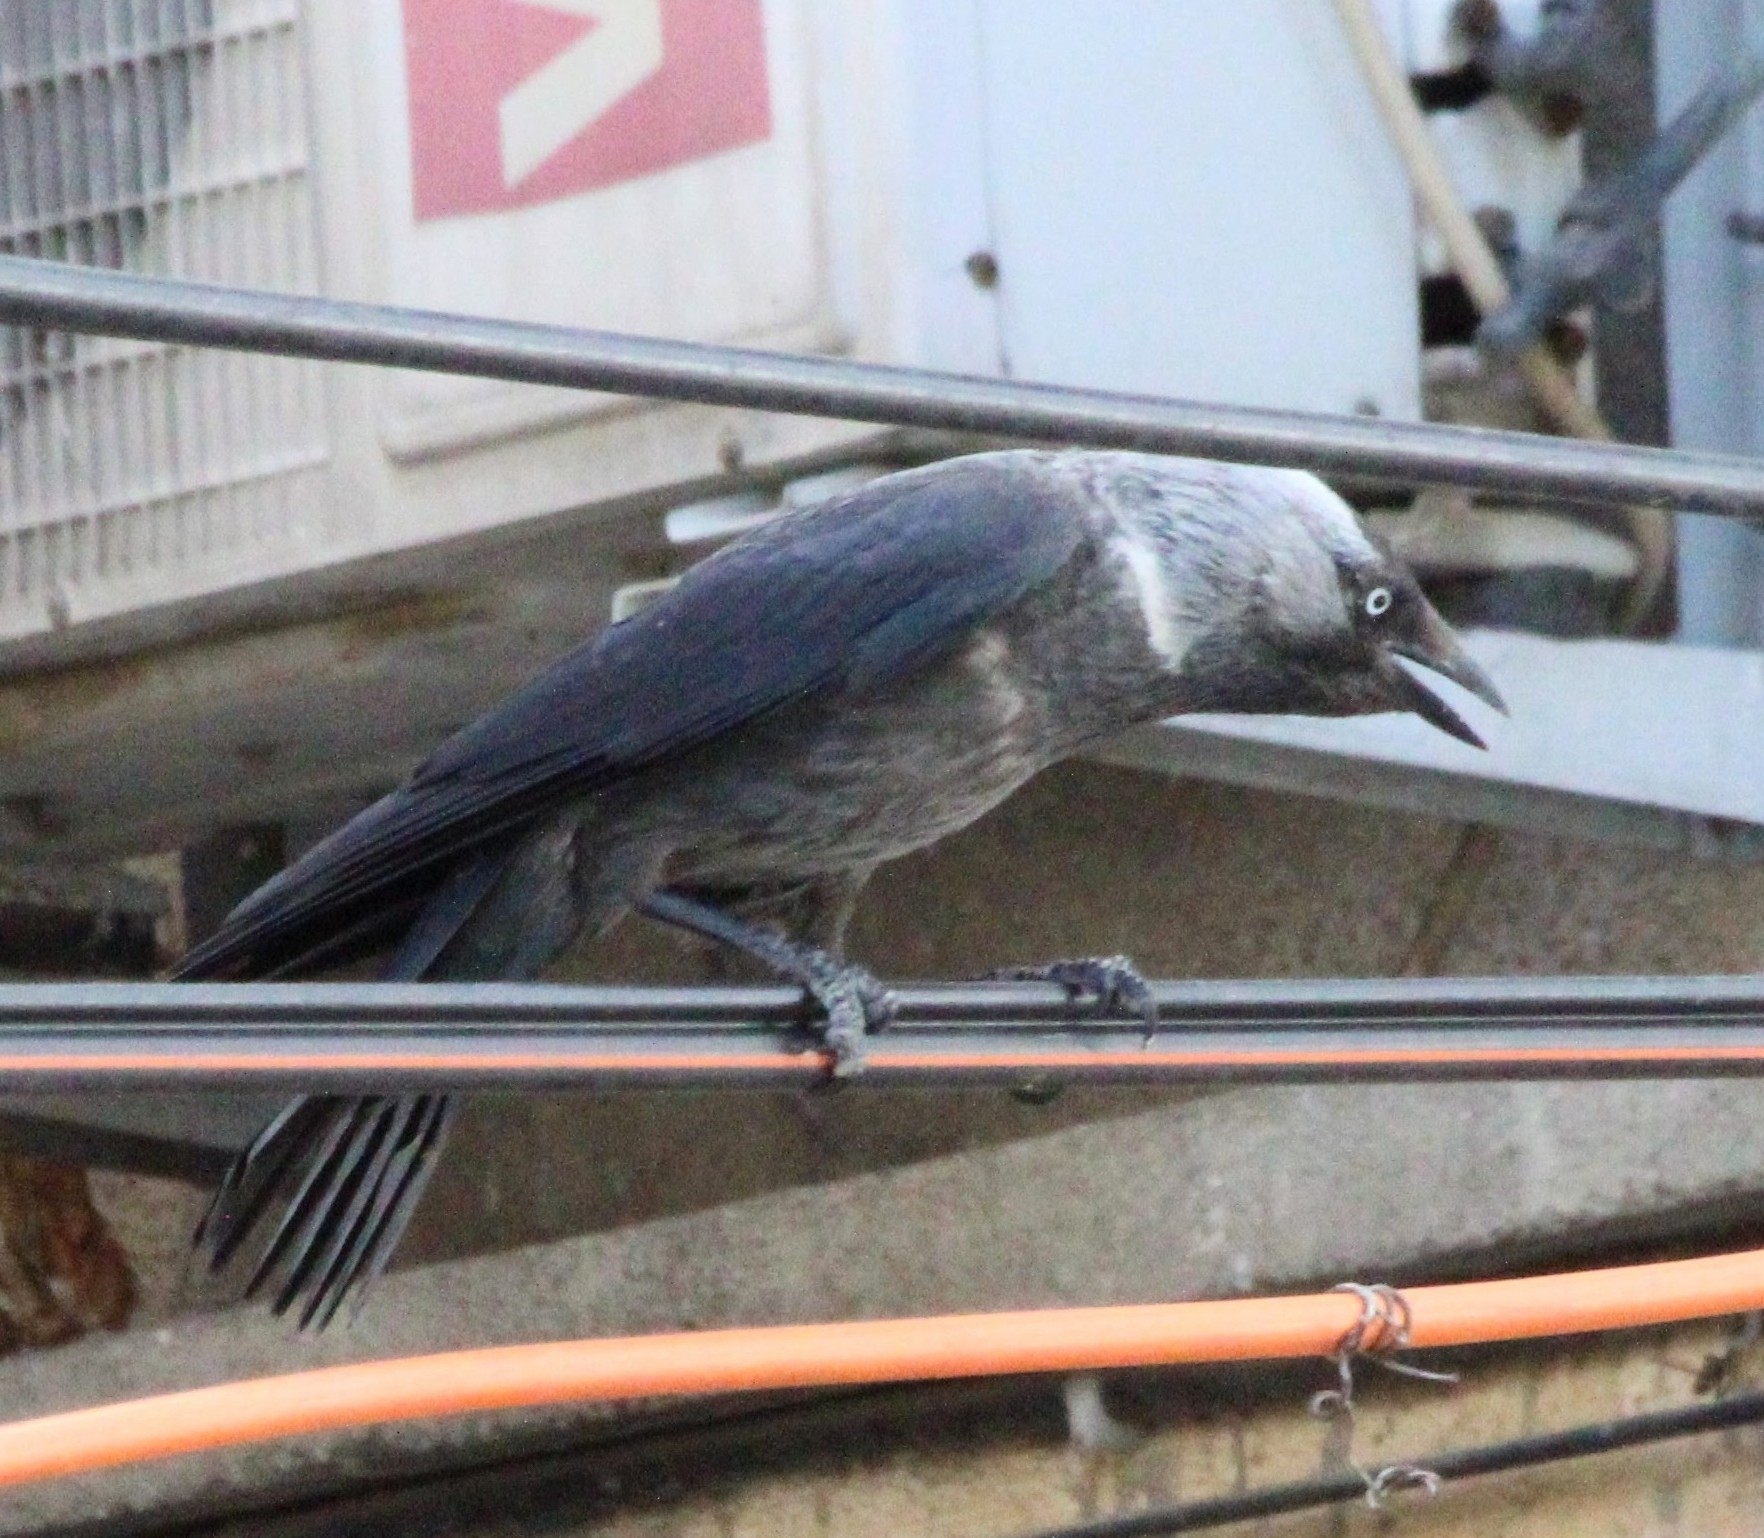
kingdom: Animalia
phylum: Chordata
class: Aves
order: Passeriformes
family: Corvidae
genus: Coloeus
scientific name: Coloeus monedula
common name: Western jackdaw
